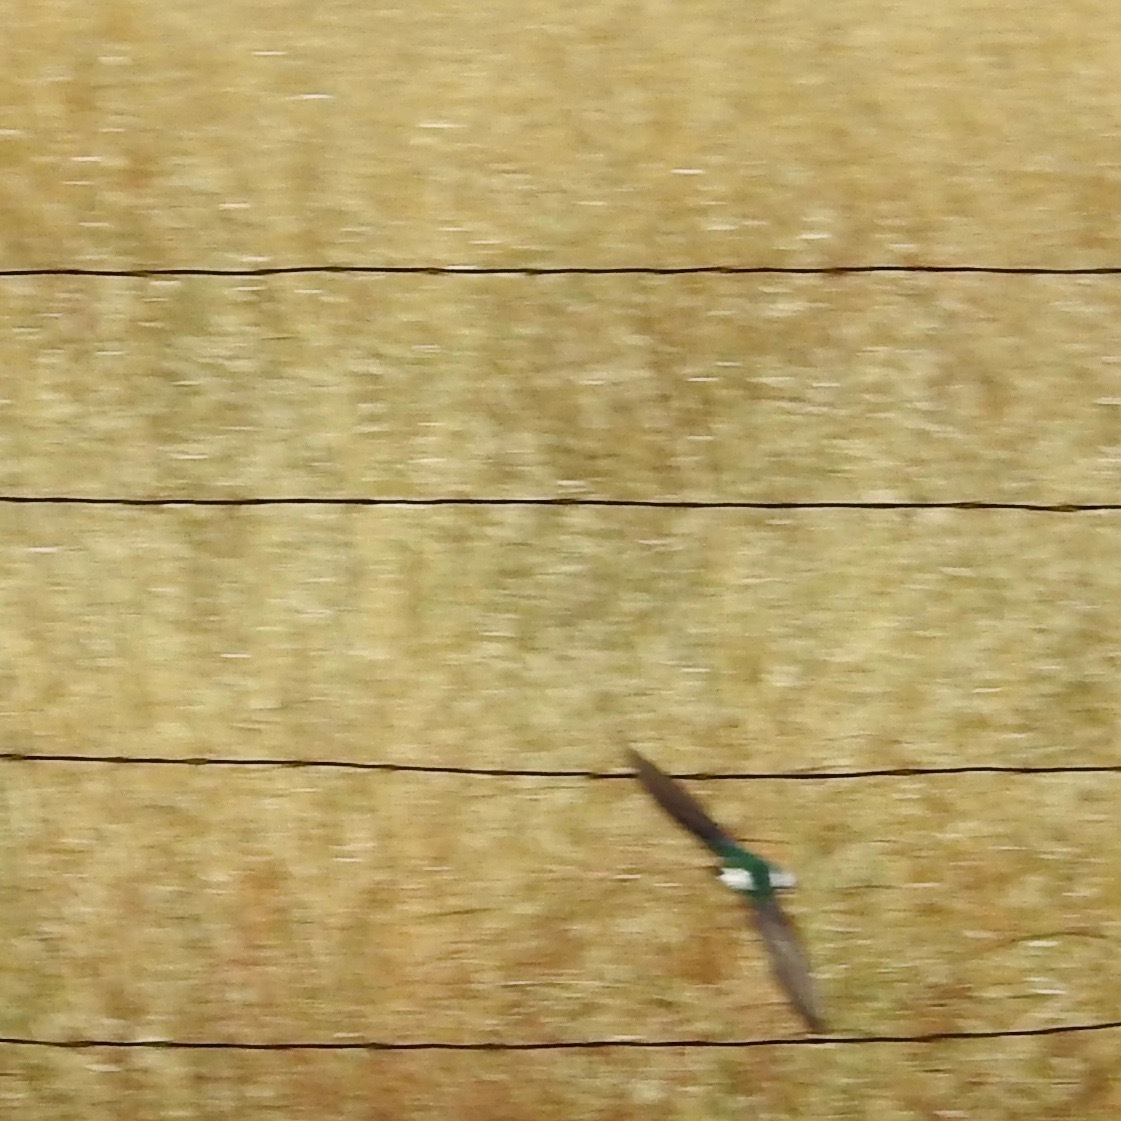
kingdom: Animalia
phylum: Chordata
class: Aves
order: Passeriformes
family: Hirundinidae
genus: Tachycineta
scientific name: Tachycineta thalassina
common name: Violet-green swallow
